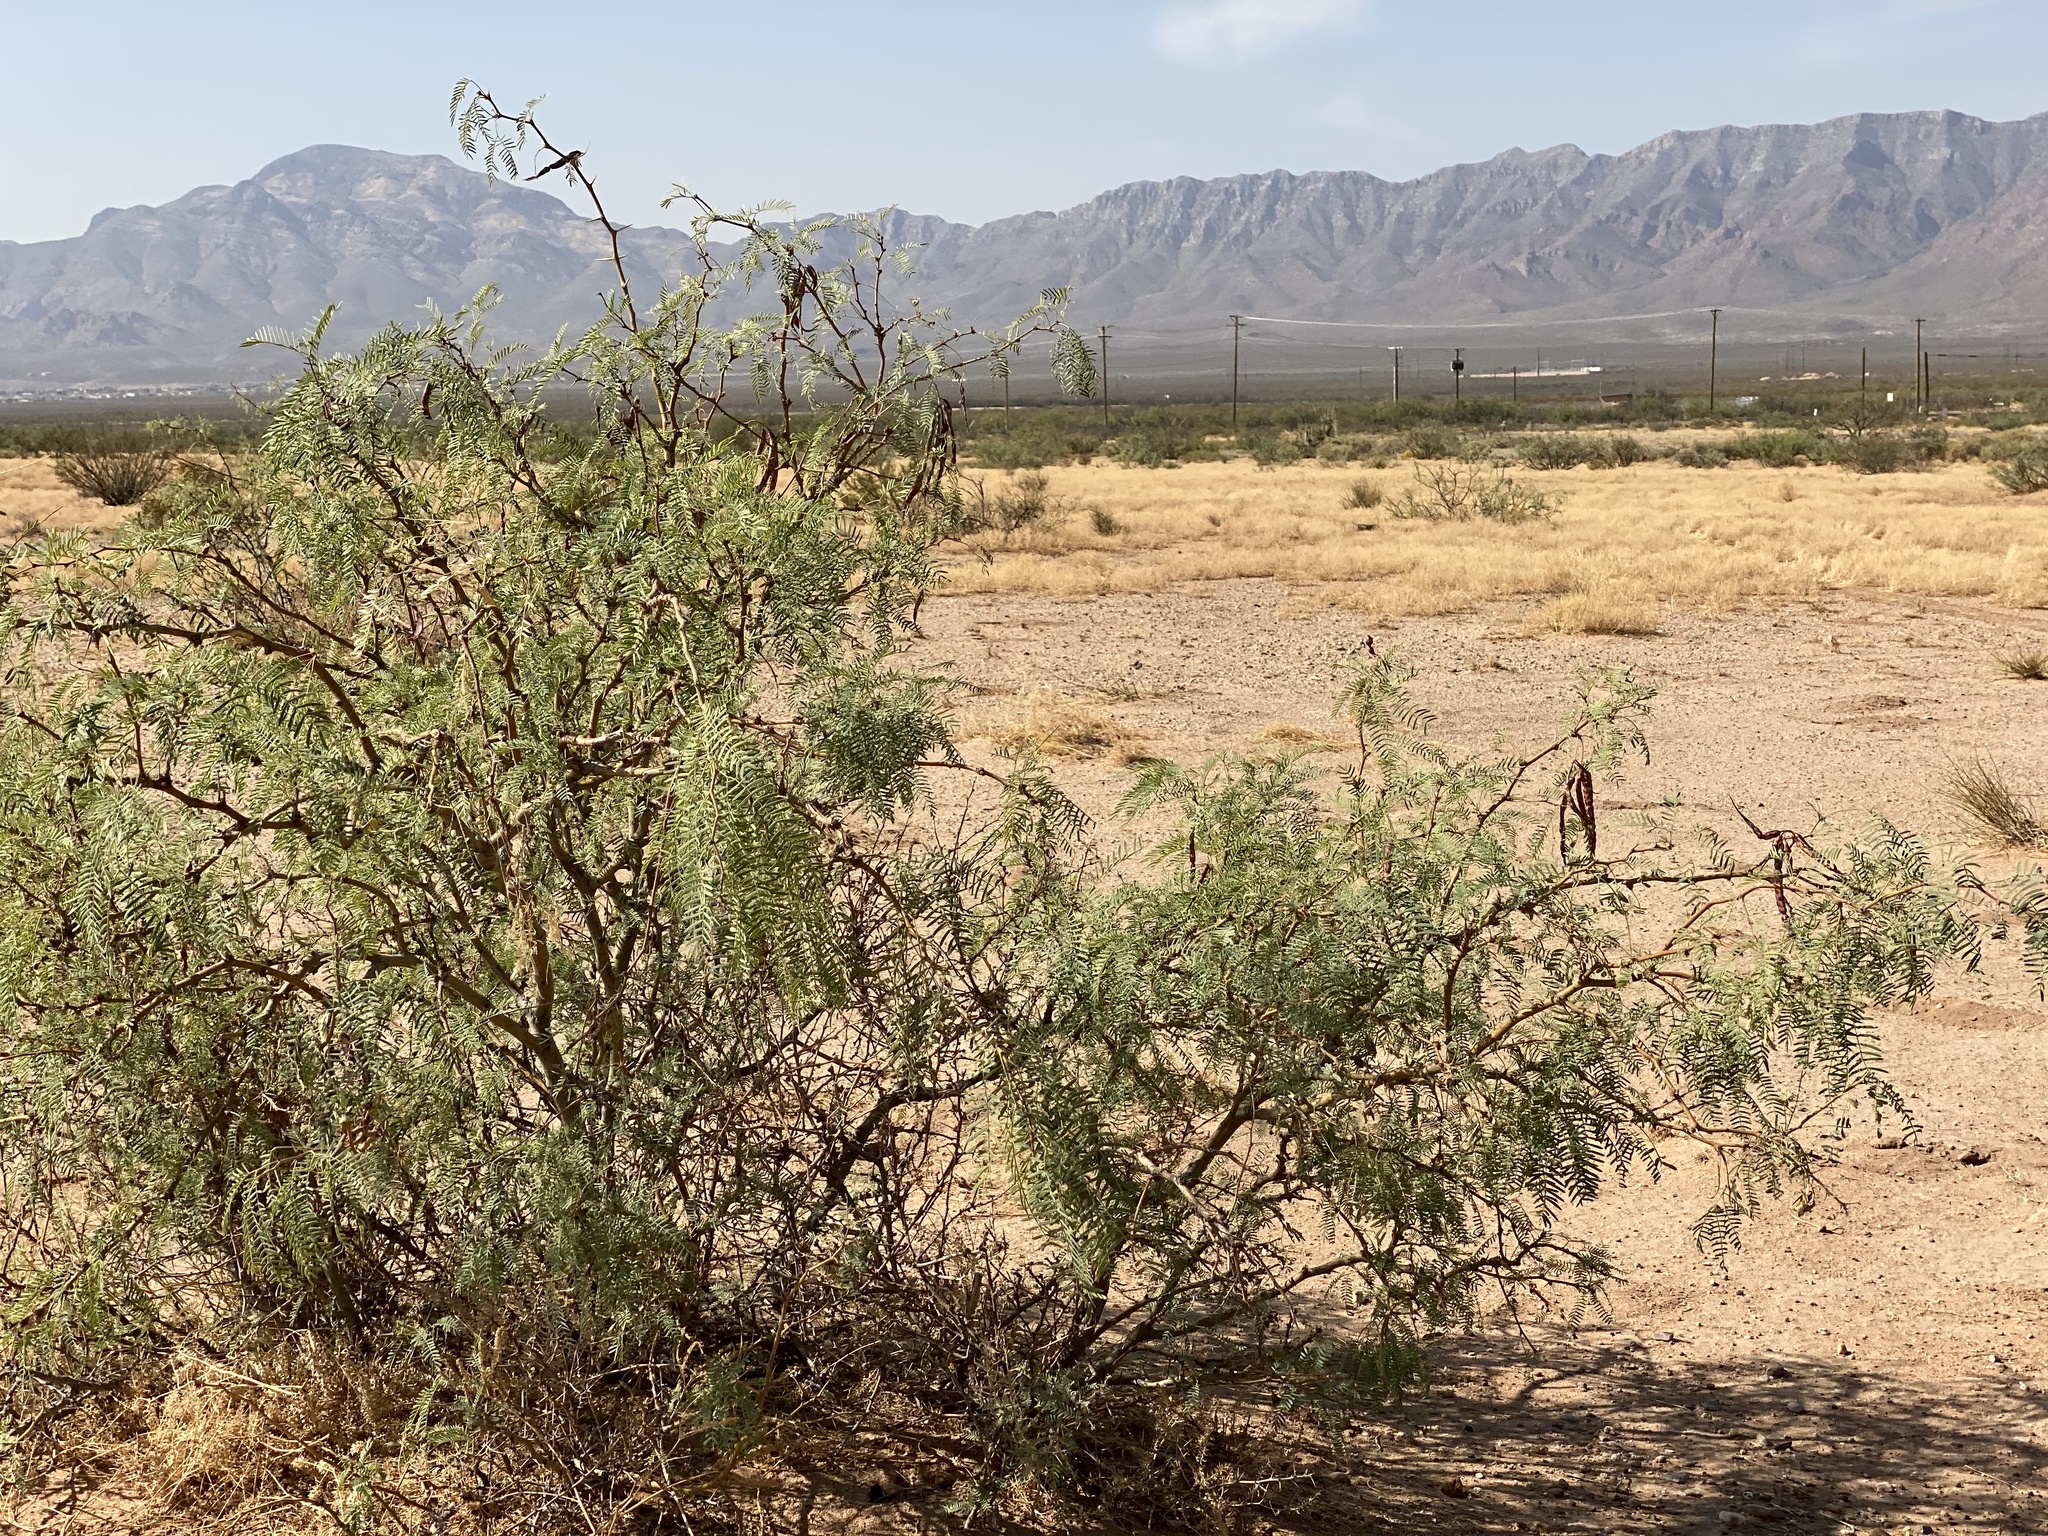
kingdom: Plantae
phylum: Tracheophyta
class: Magnoliopsida
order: Fabales
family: Fabaceae
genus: Prosopis
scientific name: Prosopis glandulosa
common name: Honey mesquite
